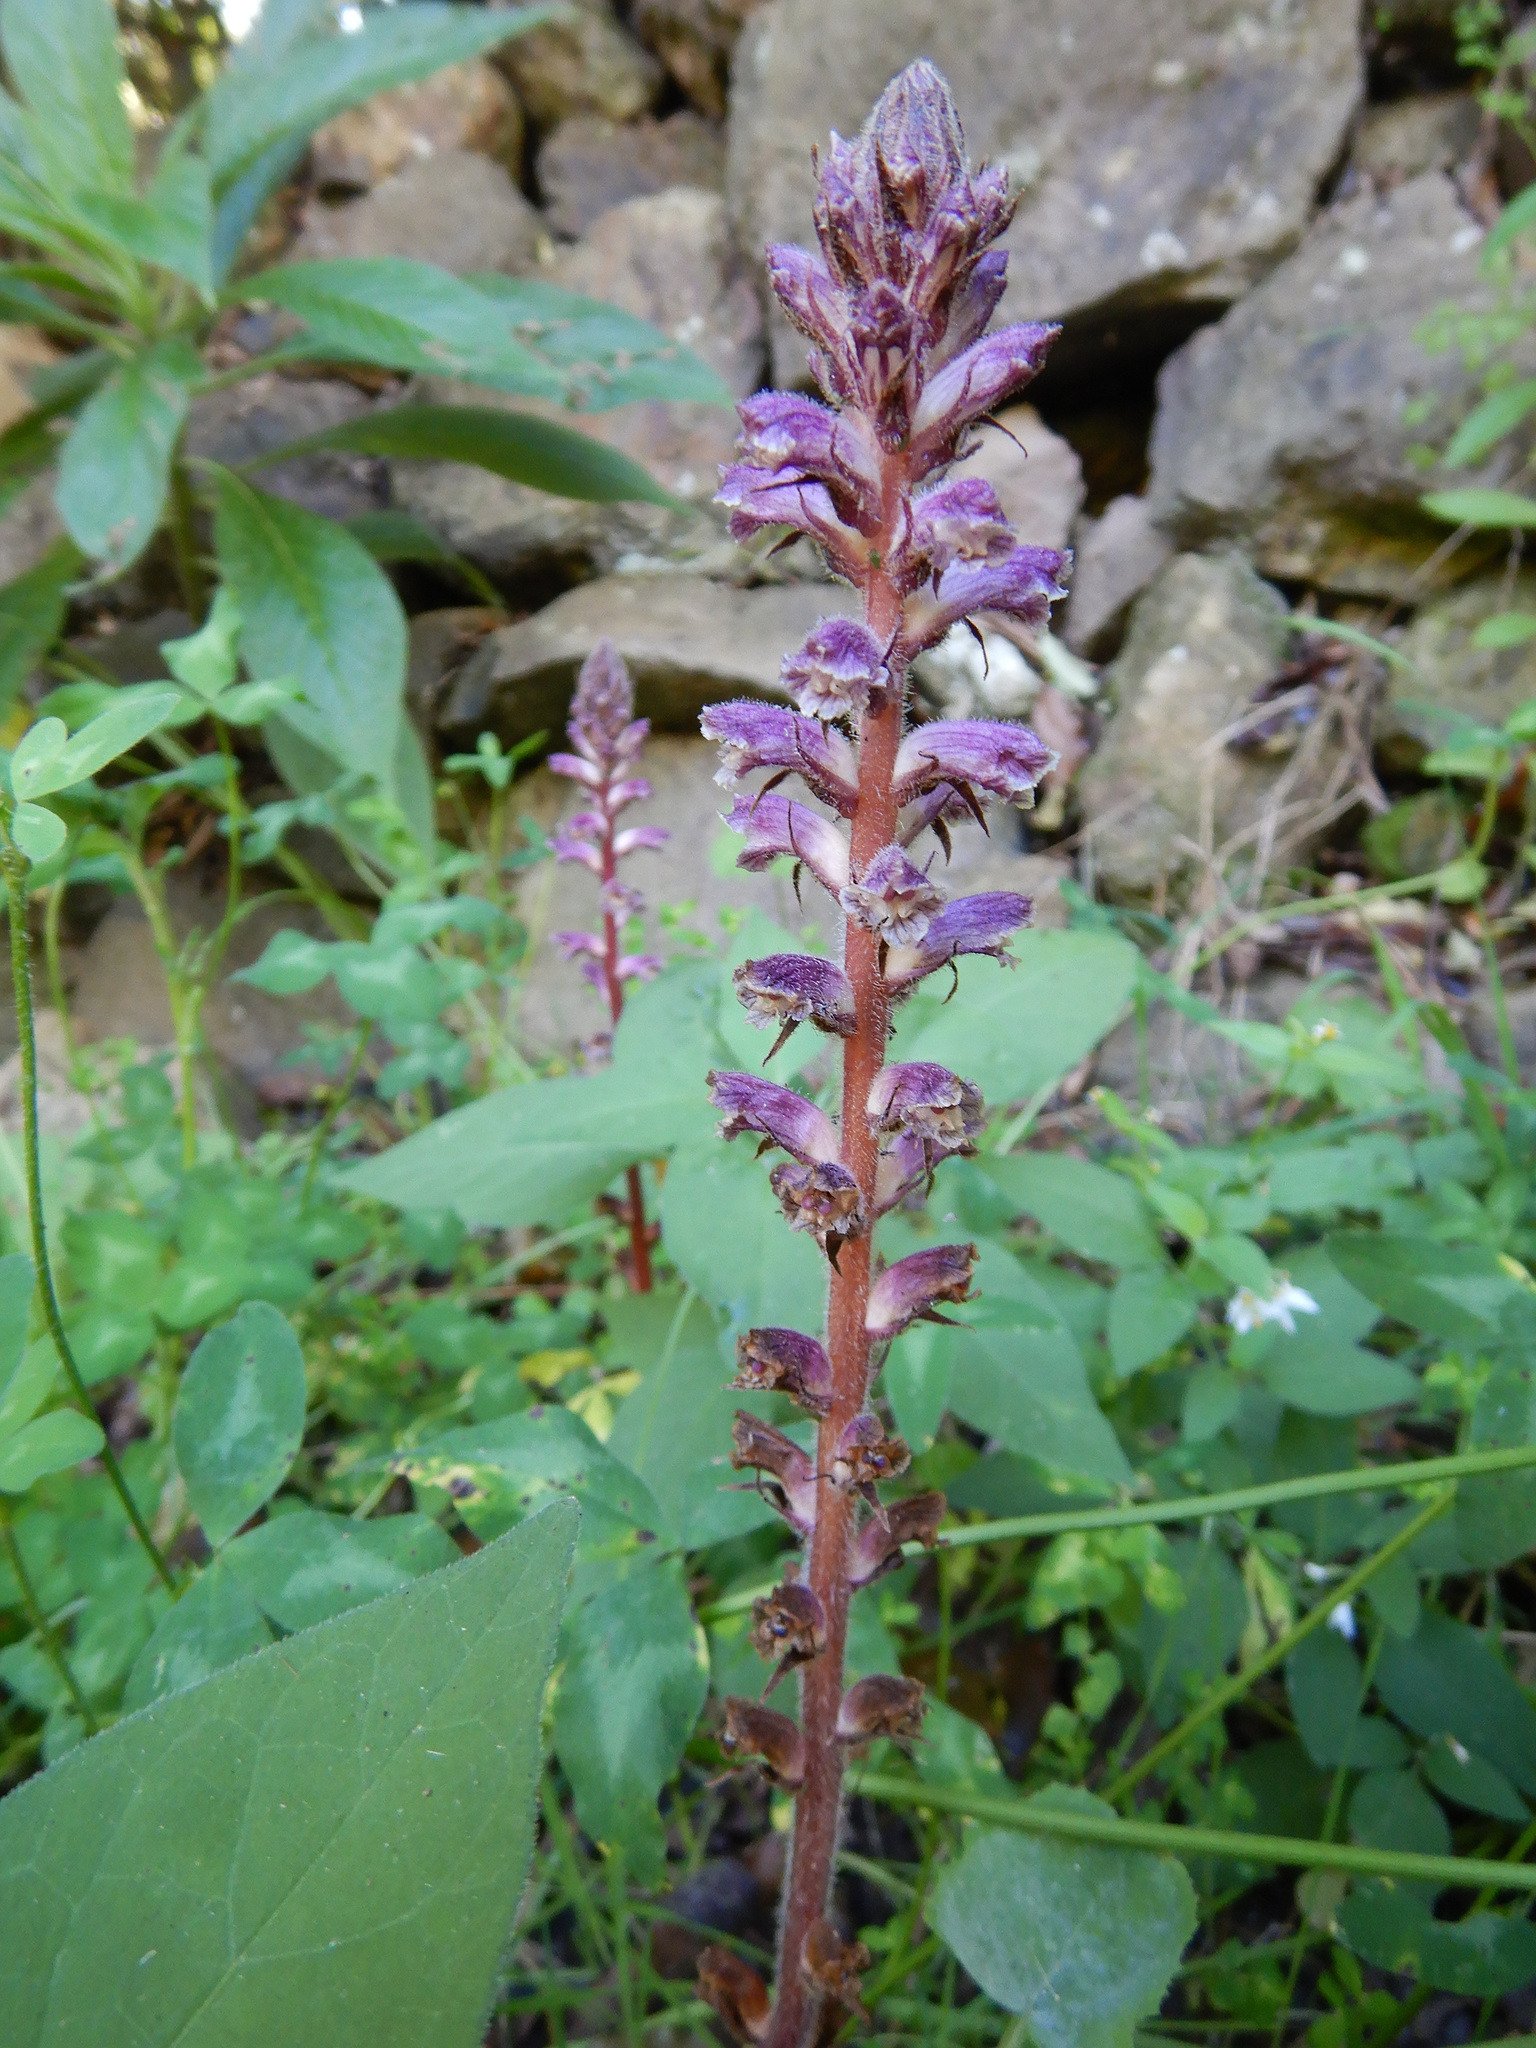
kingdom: Plantae
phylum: Tracheophyta
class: Magnoliopsida
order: Lamiales
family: Orobanchaceae
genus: Orobanche
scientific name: Orobanche minor
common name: Common broomrape
